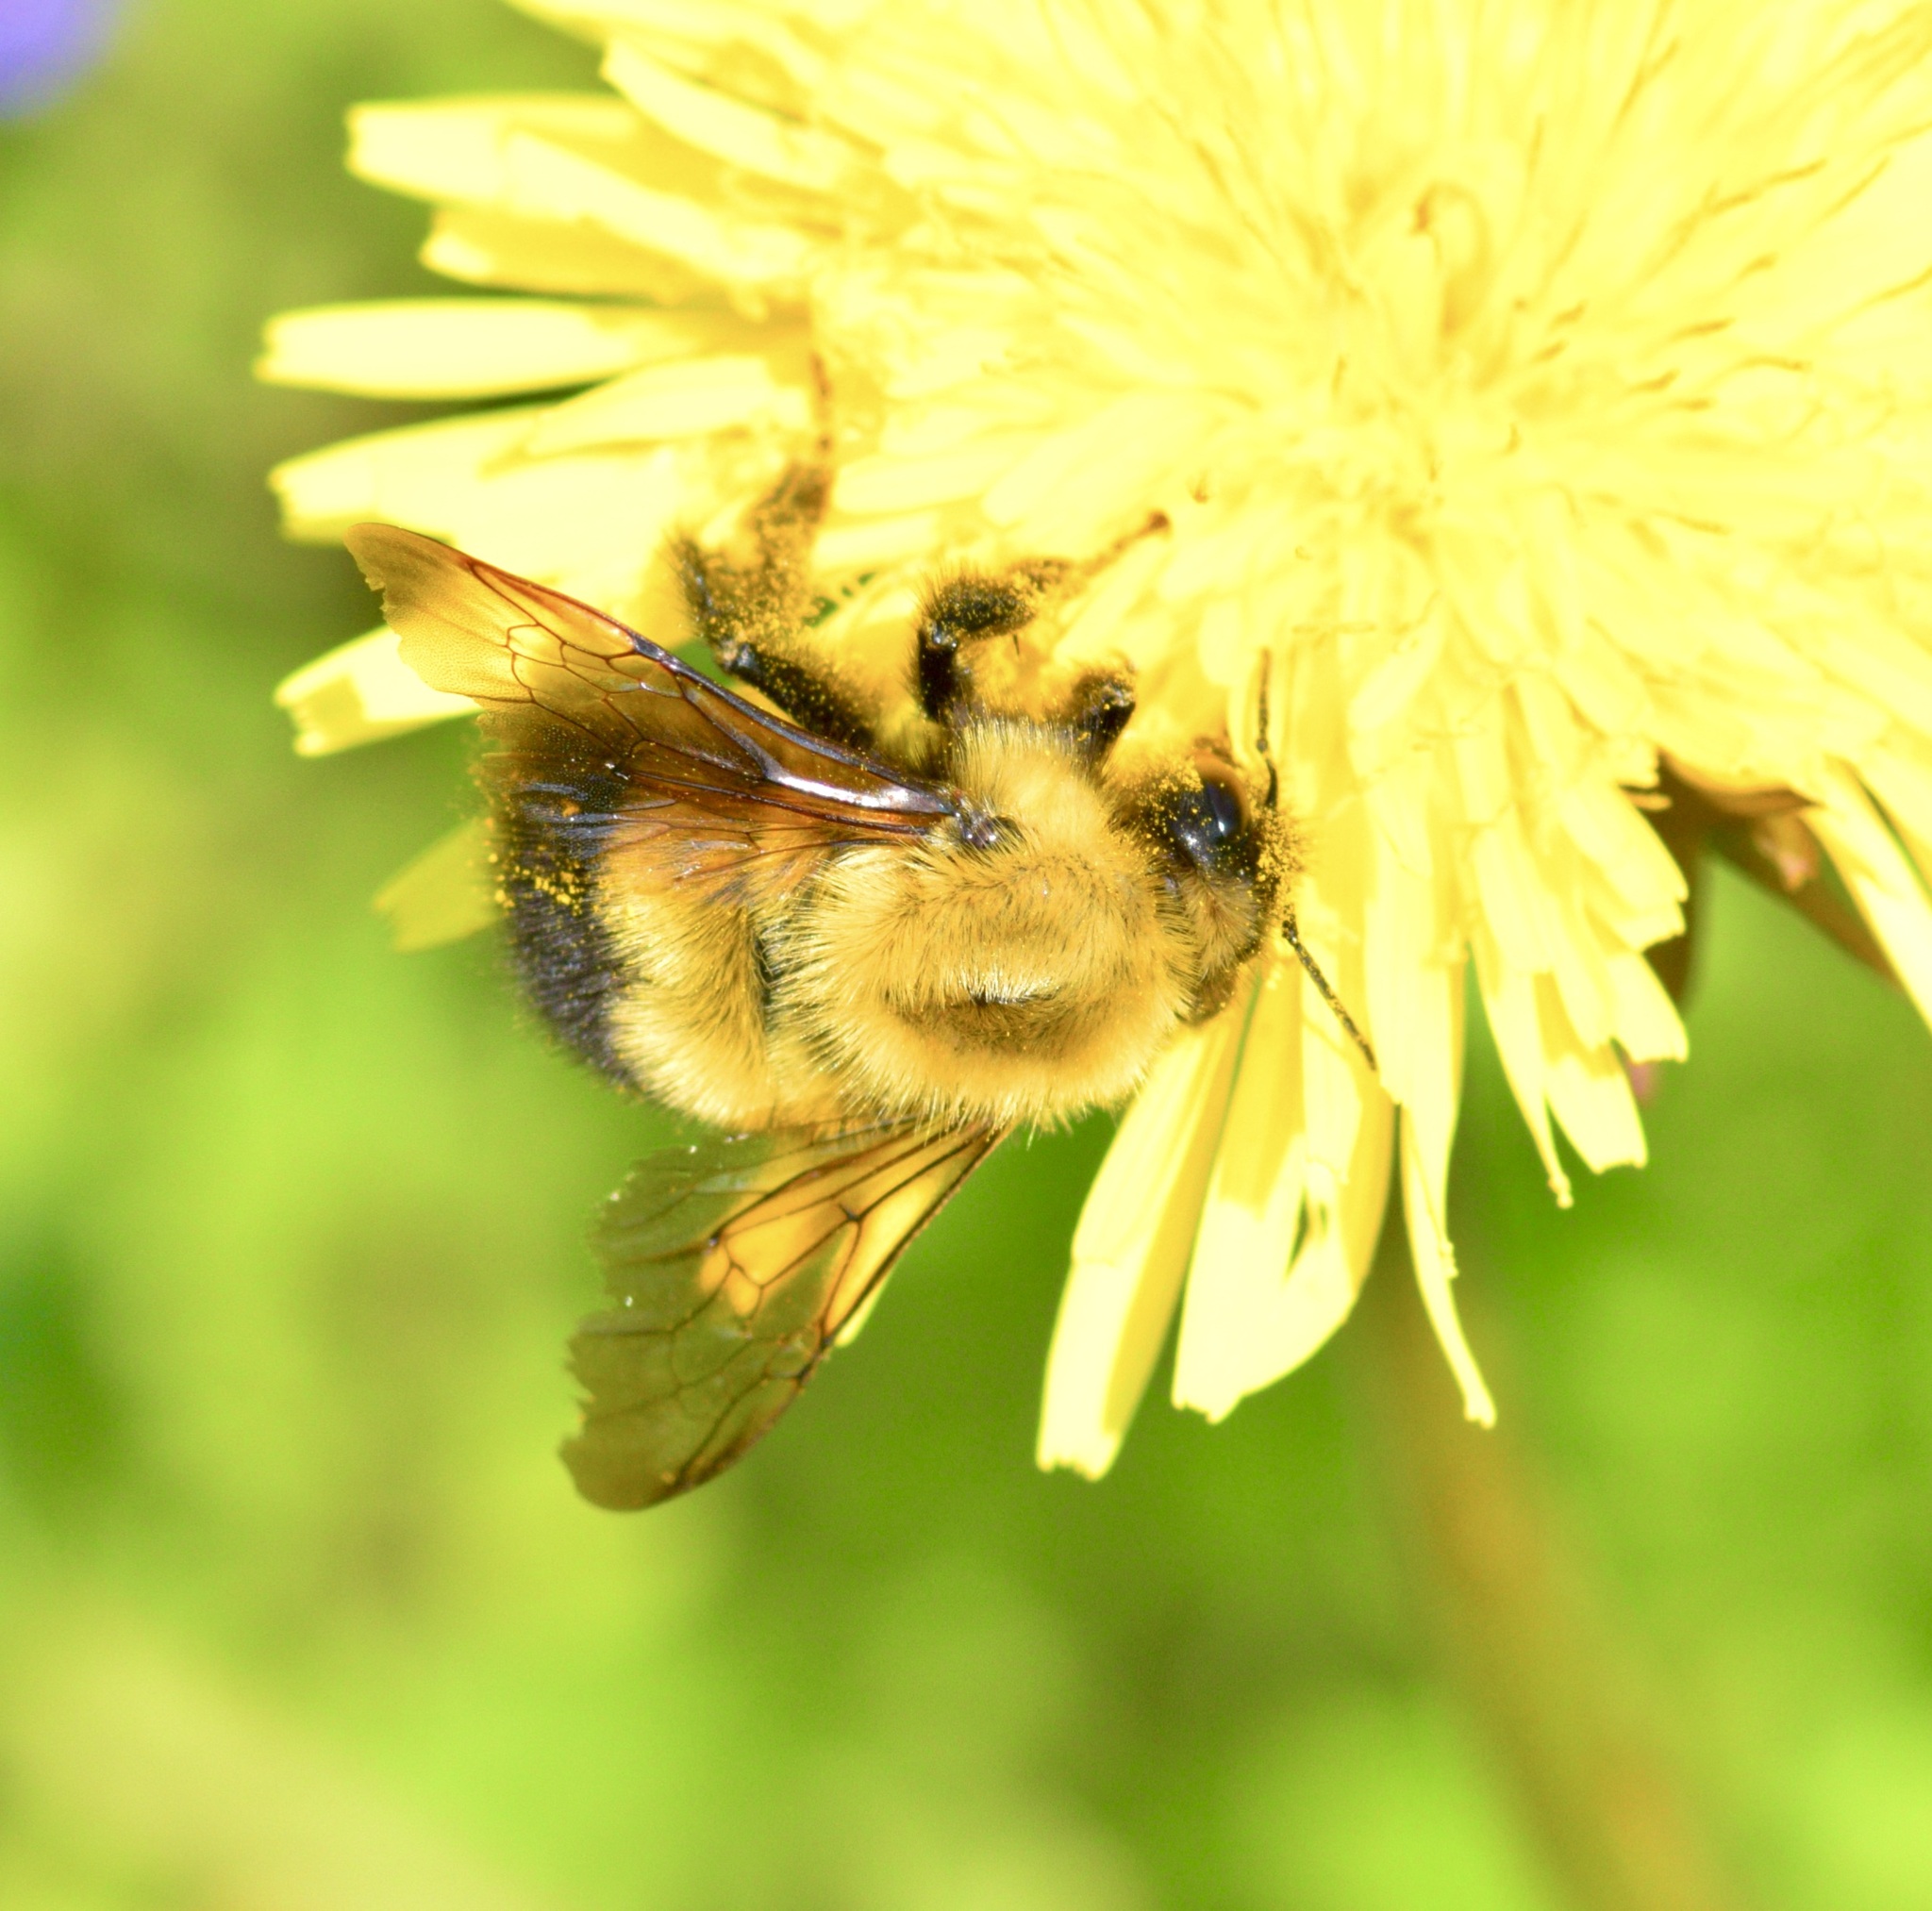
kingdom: Animalia
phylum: Arthropoda
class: Insecta
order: Hymenoptera
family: Apidae
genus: Bombus
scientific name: Bombus perplexus
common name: Confusing bumble bee
